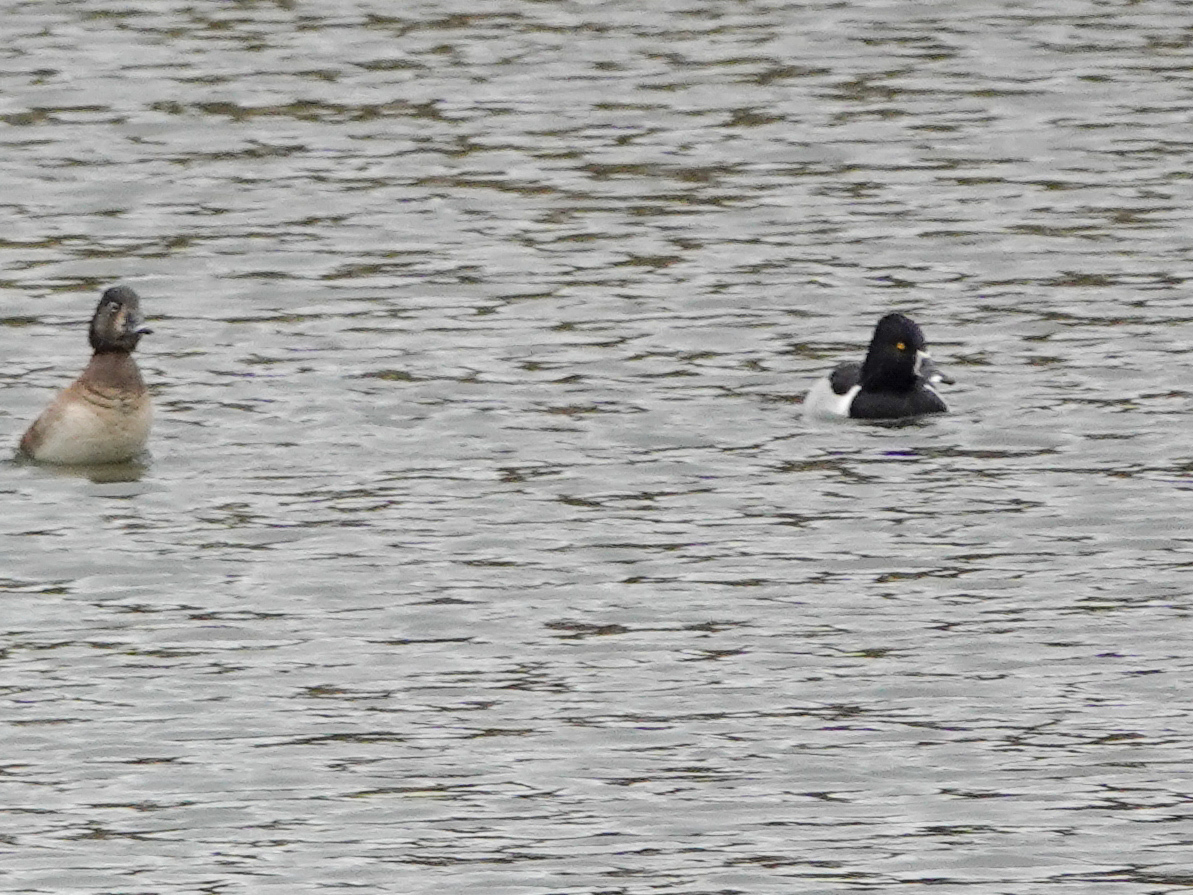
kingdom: Animalia
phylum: Chordata
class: Aves
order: Anseriformes
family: Anatidae
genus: Aythya
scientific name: Aythya collaris
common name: Ring-necked duck
